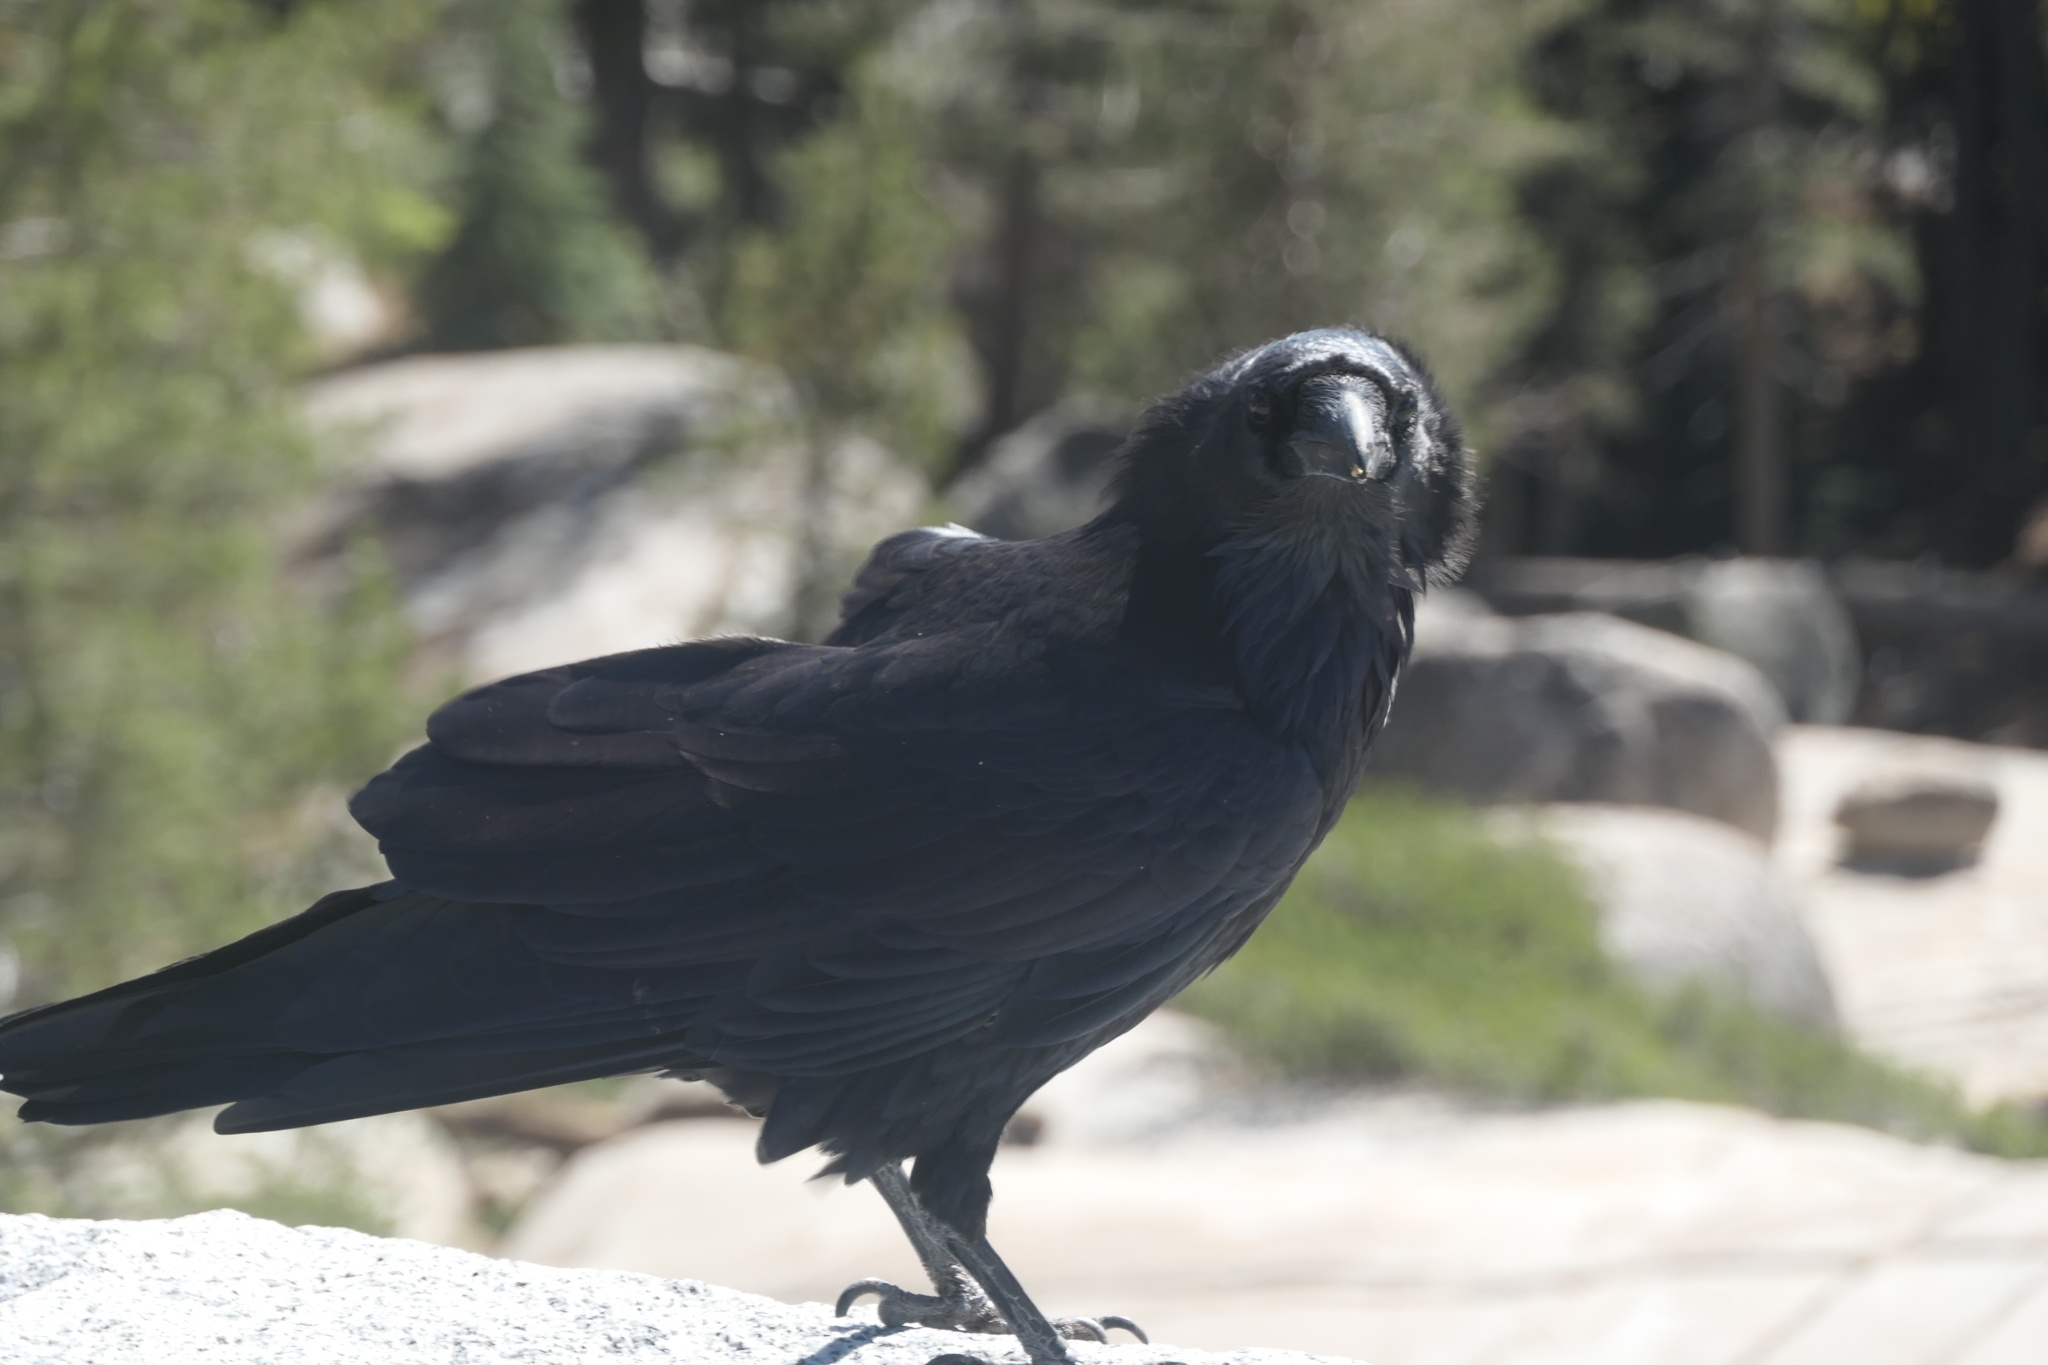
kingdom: Animalia
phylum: Chordata
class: Aves
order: Passeriformes
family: Corvidae
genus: Corvus
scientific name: Corvus corax
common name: Common raven
